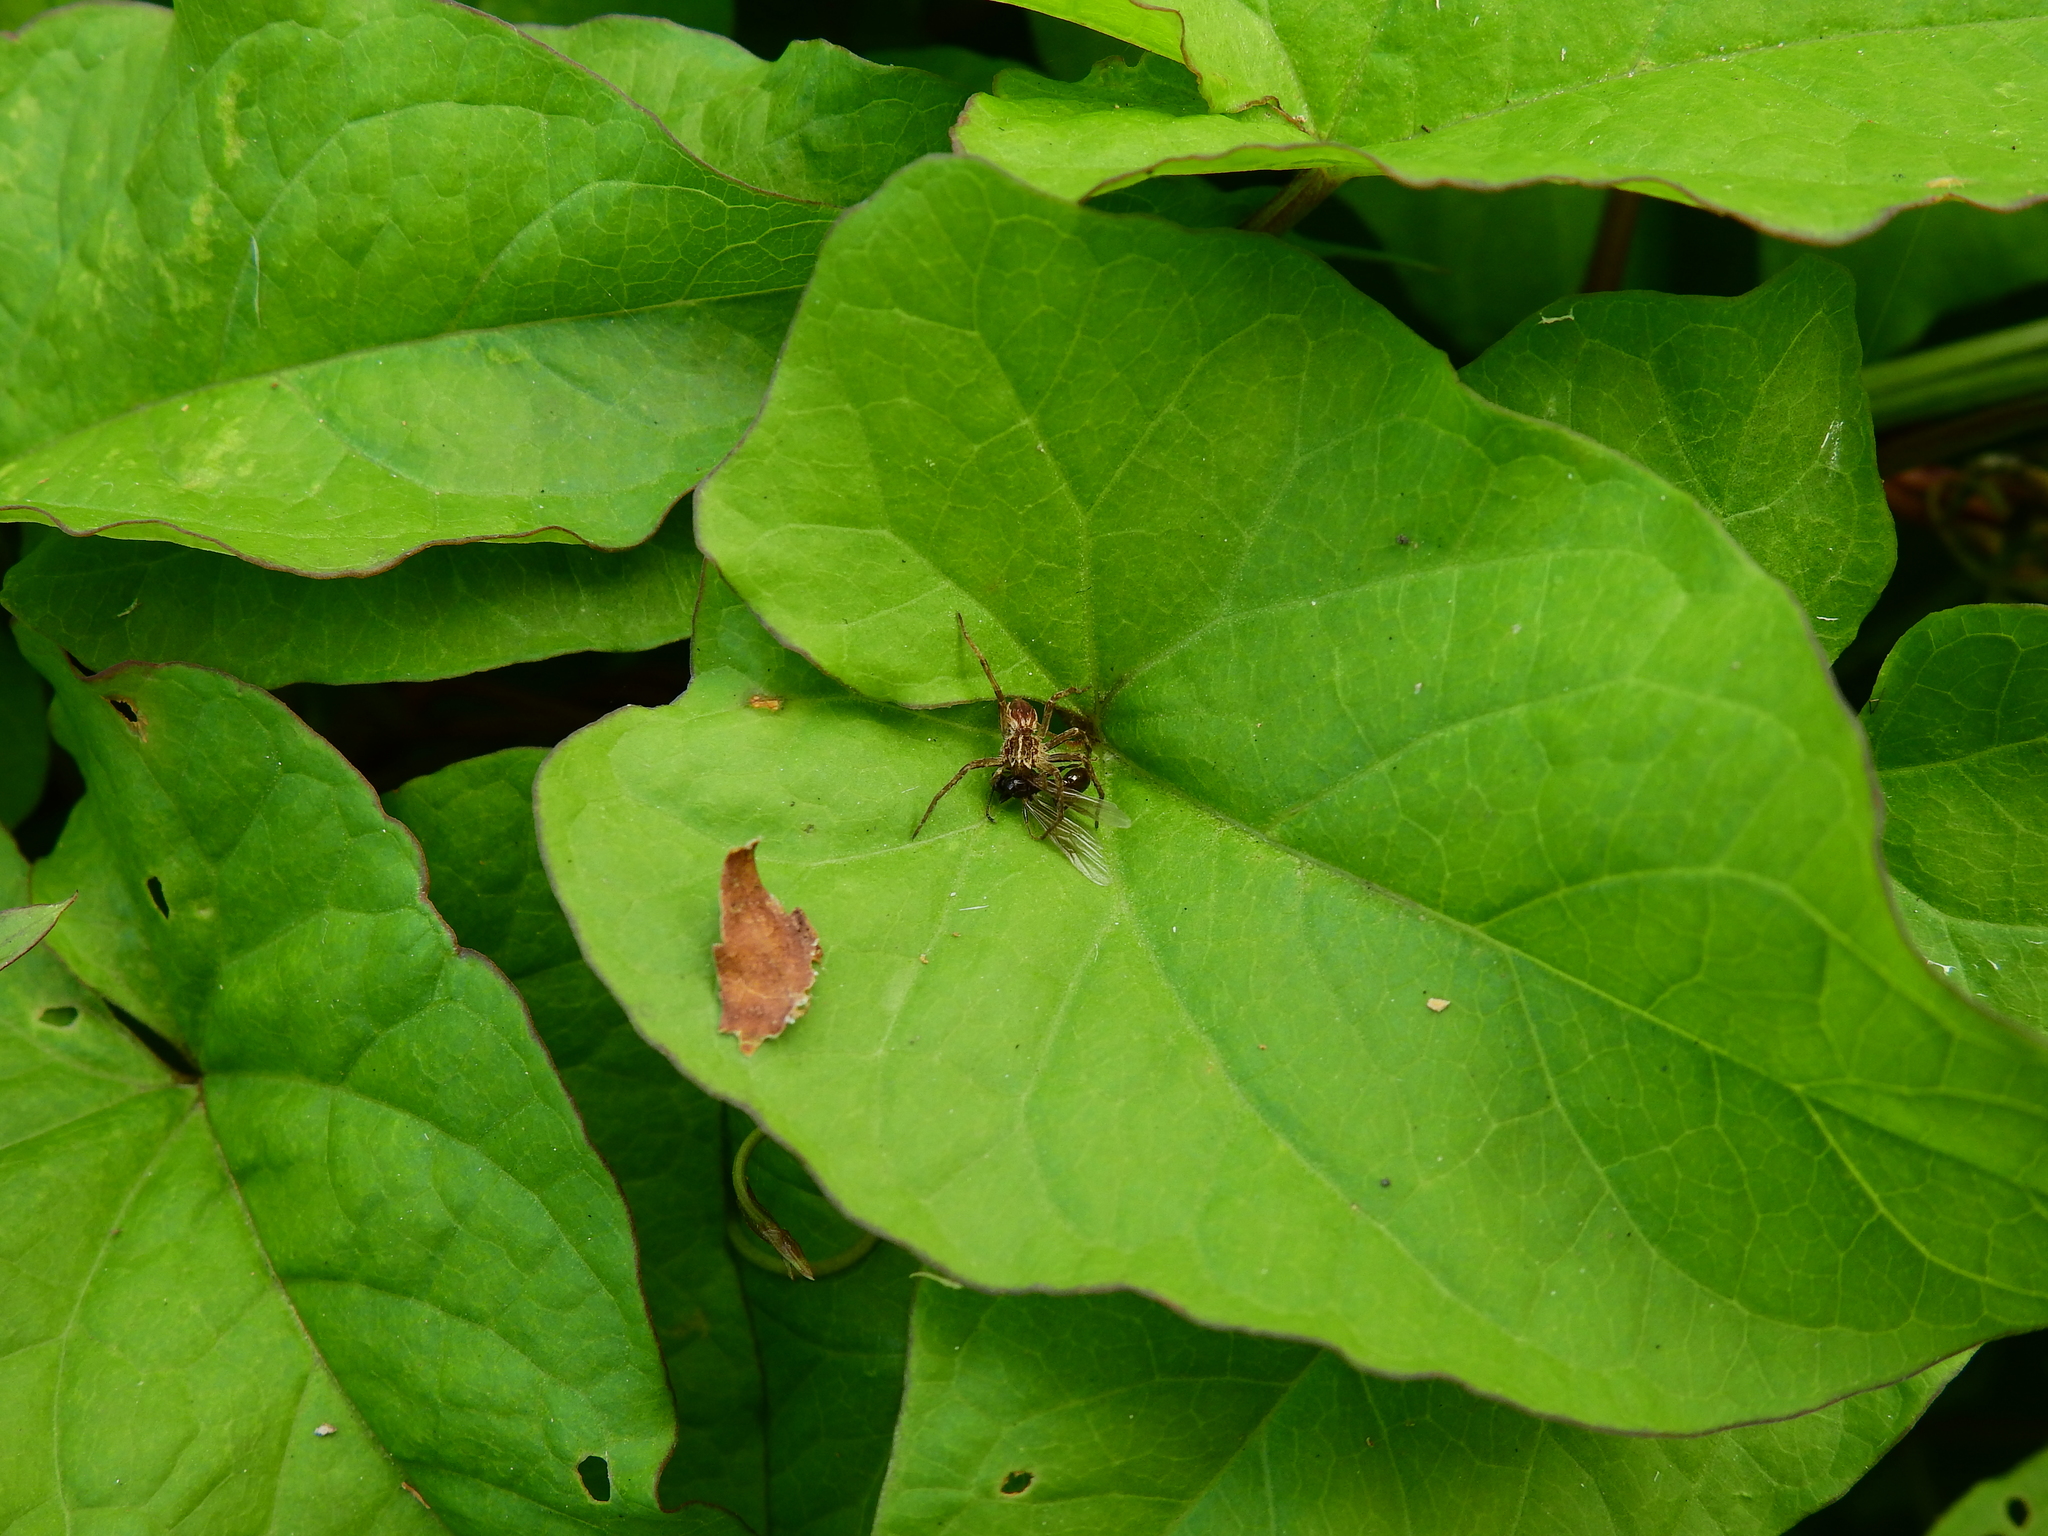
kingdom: Animalia
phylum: Arthropoda
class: Arachnida
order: Araneae
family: Pisauridae
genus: Pisaura
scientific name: Pisaura mirabilis
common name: Tent spider
